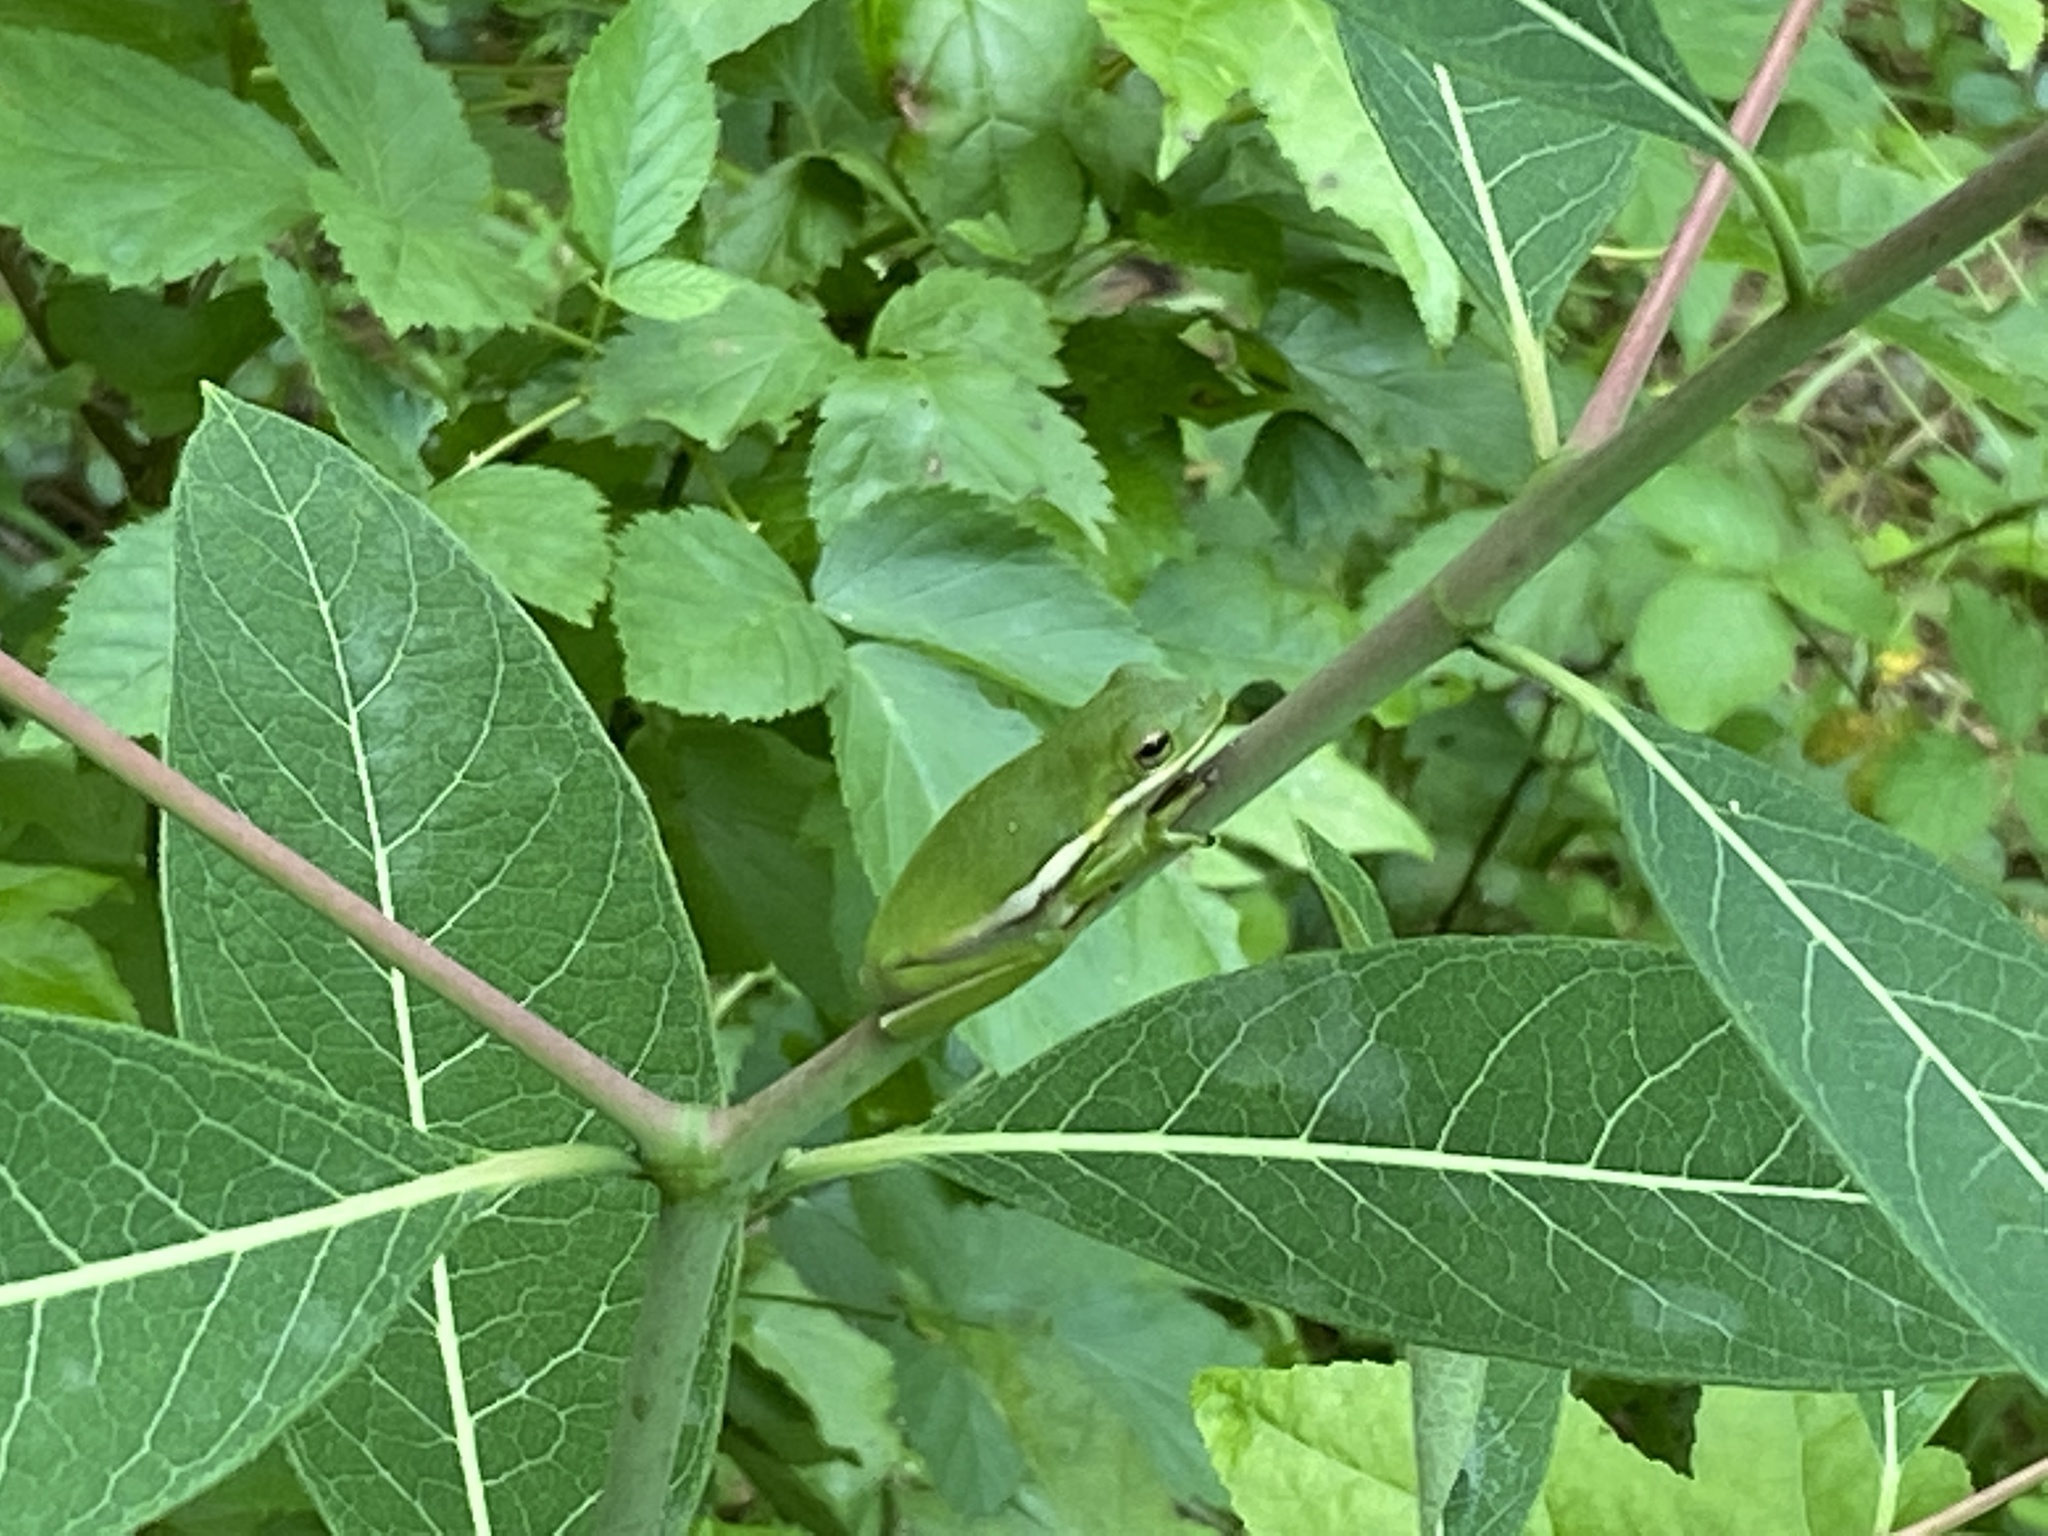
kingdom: Animalia
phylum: Chordata
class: Amphibia
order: Anura
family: Hylidae
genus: Dryophytes
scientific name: Dryophytes cinereus
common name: Green treefrog
